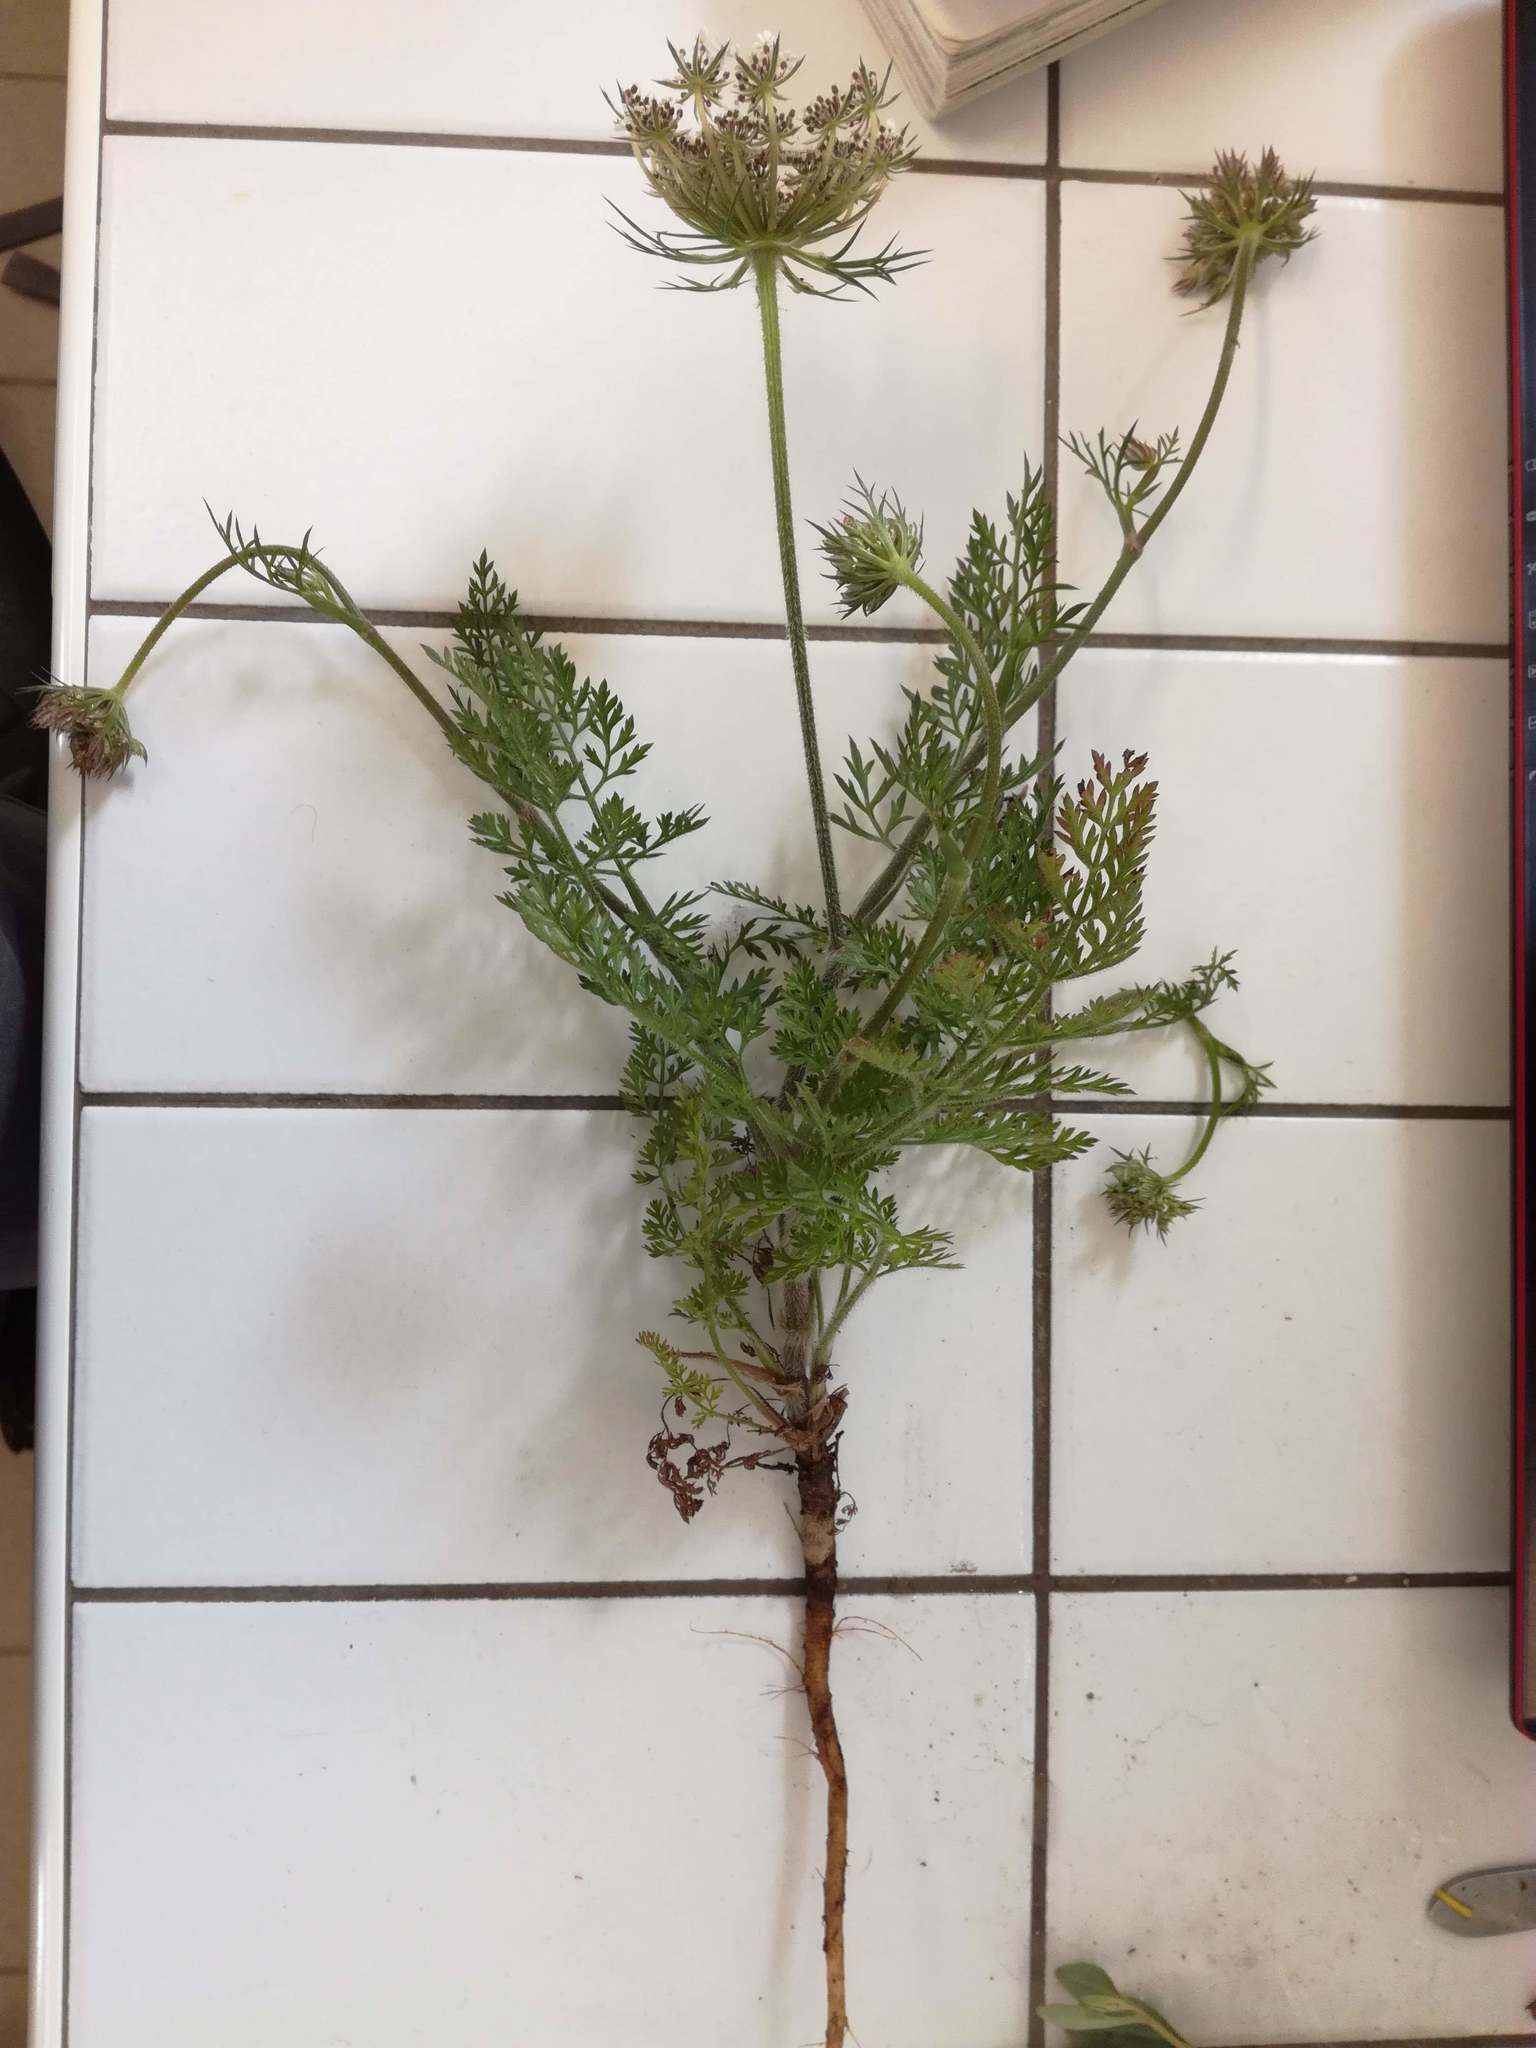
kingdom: Plantae
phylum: Tracheophyta
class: Magnoliopsida
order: Apiales
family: Apiaceae
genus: Daucus
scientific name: Daucus carota
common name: Wild carrot
